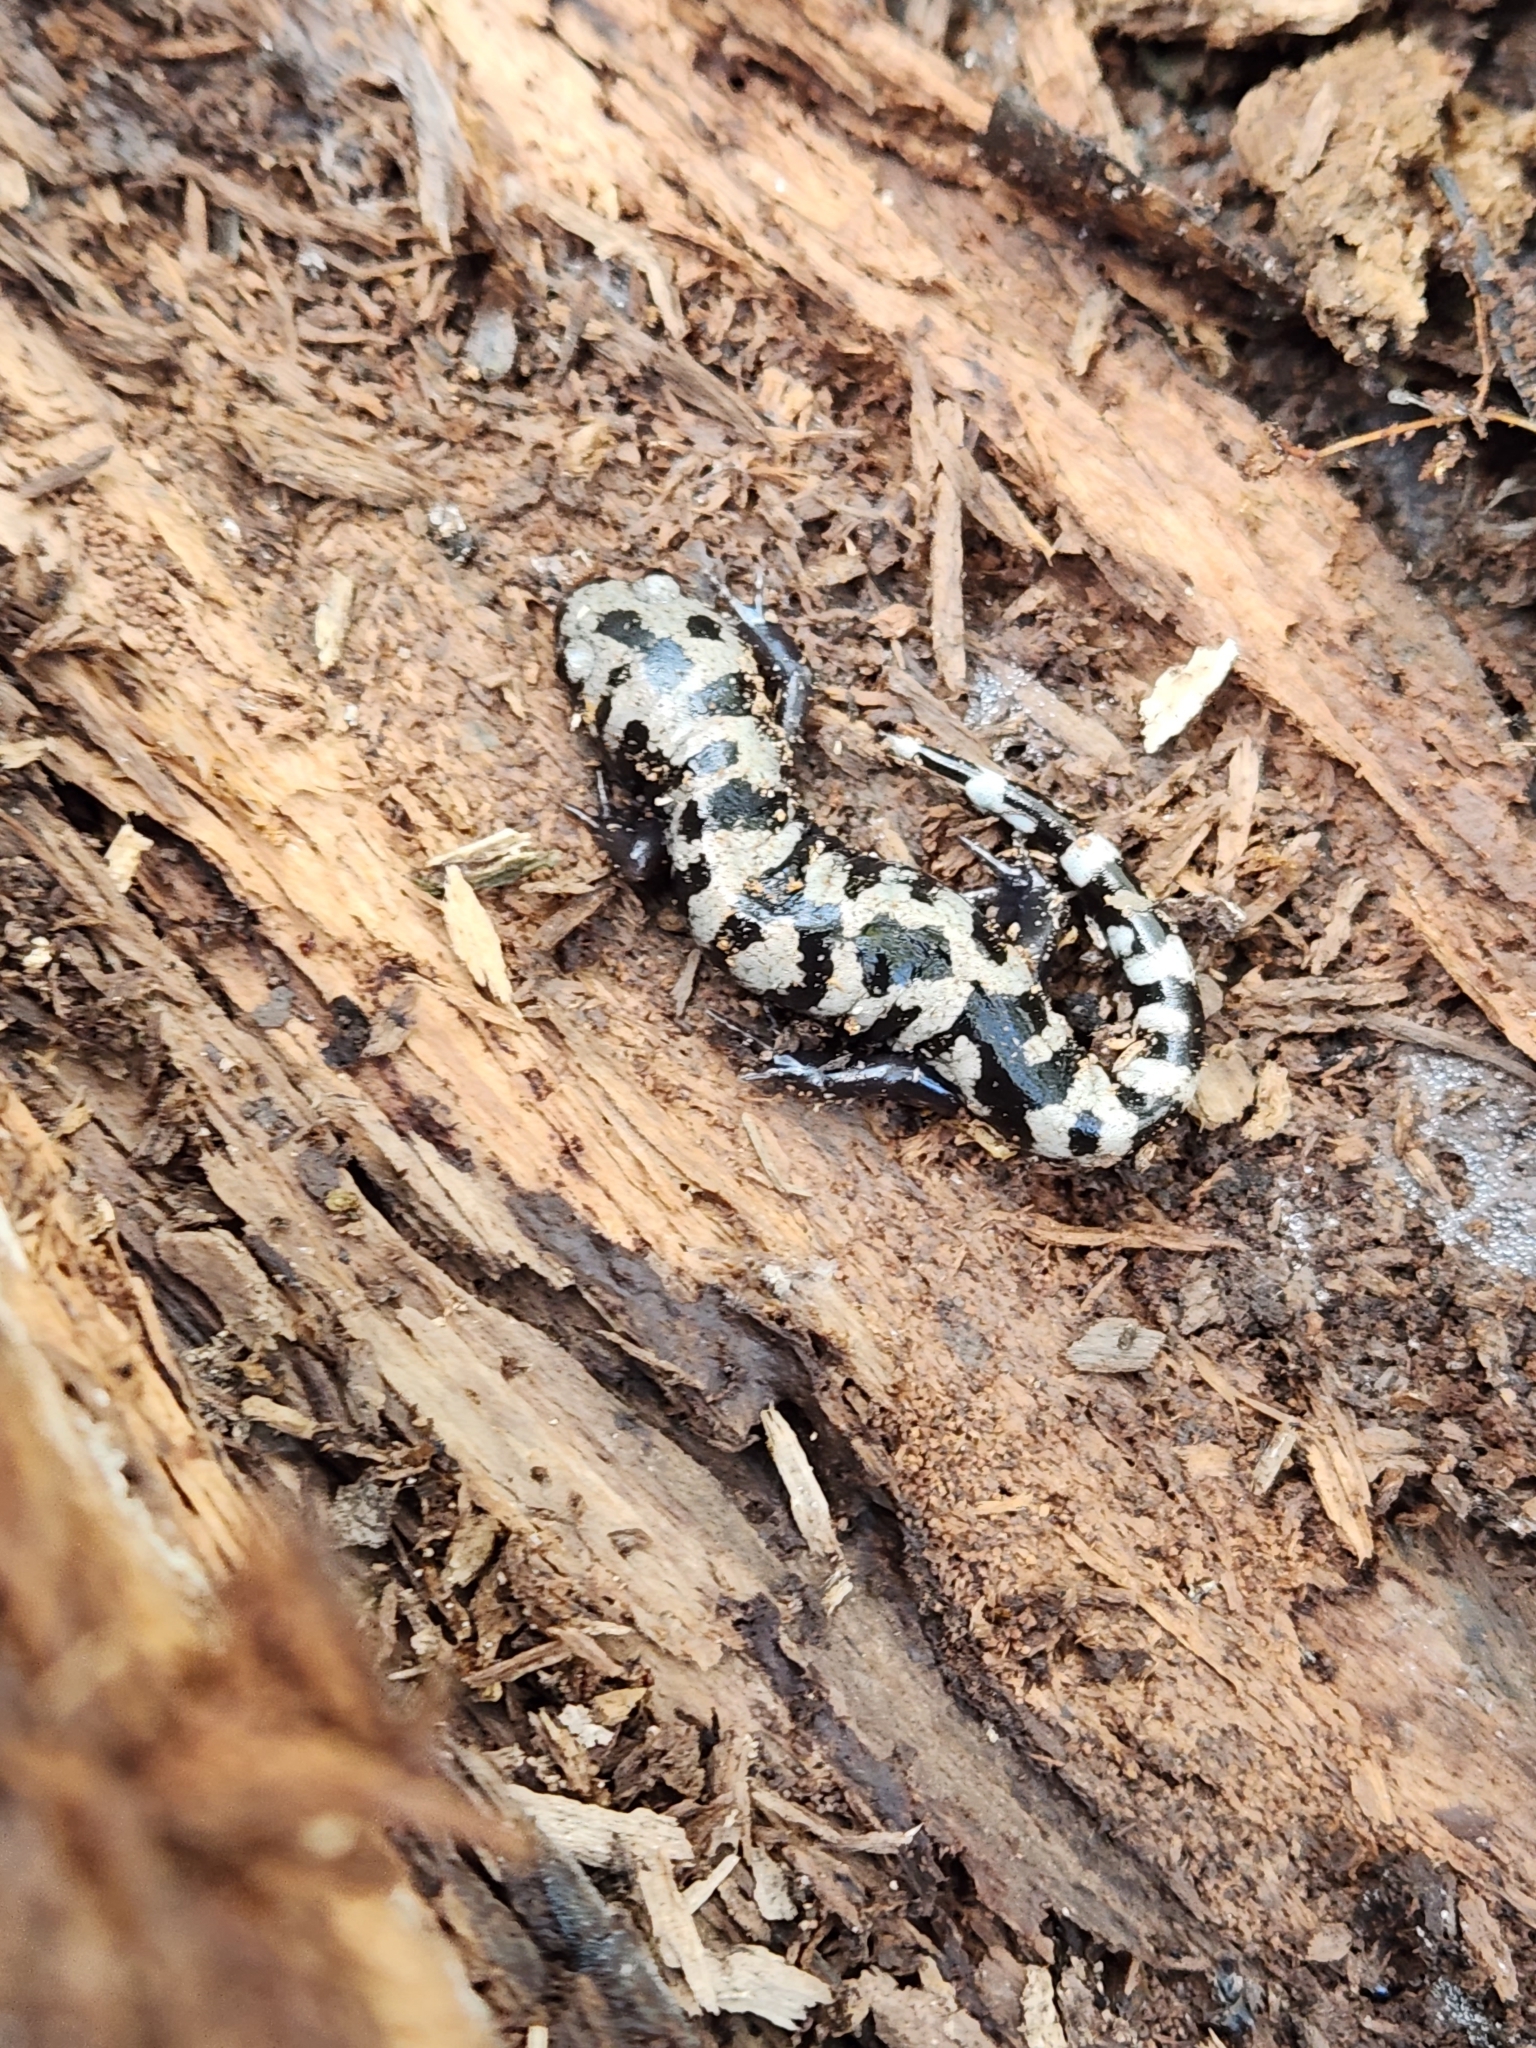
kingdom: Animalia
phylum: Chordata
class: Amphibia
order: Caudata
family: Ambystomatidae
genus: Ambystoma
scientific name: Ambystoma opacum
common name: Marbled salamander
